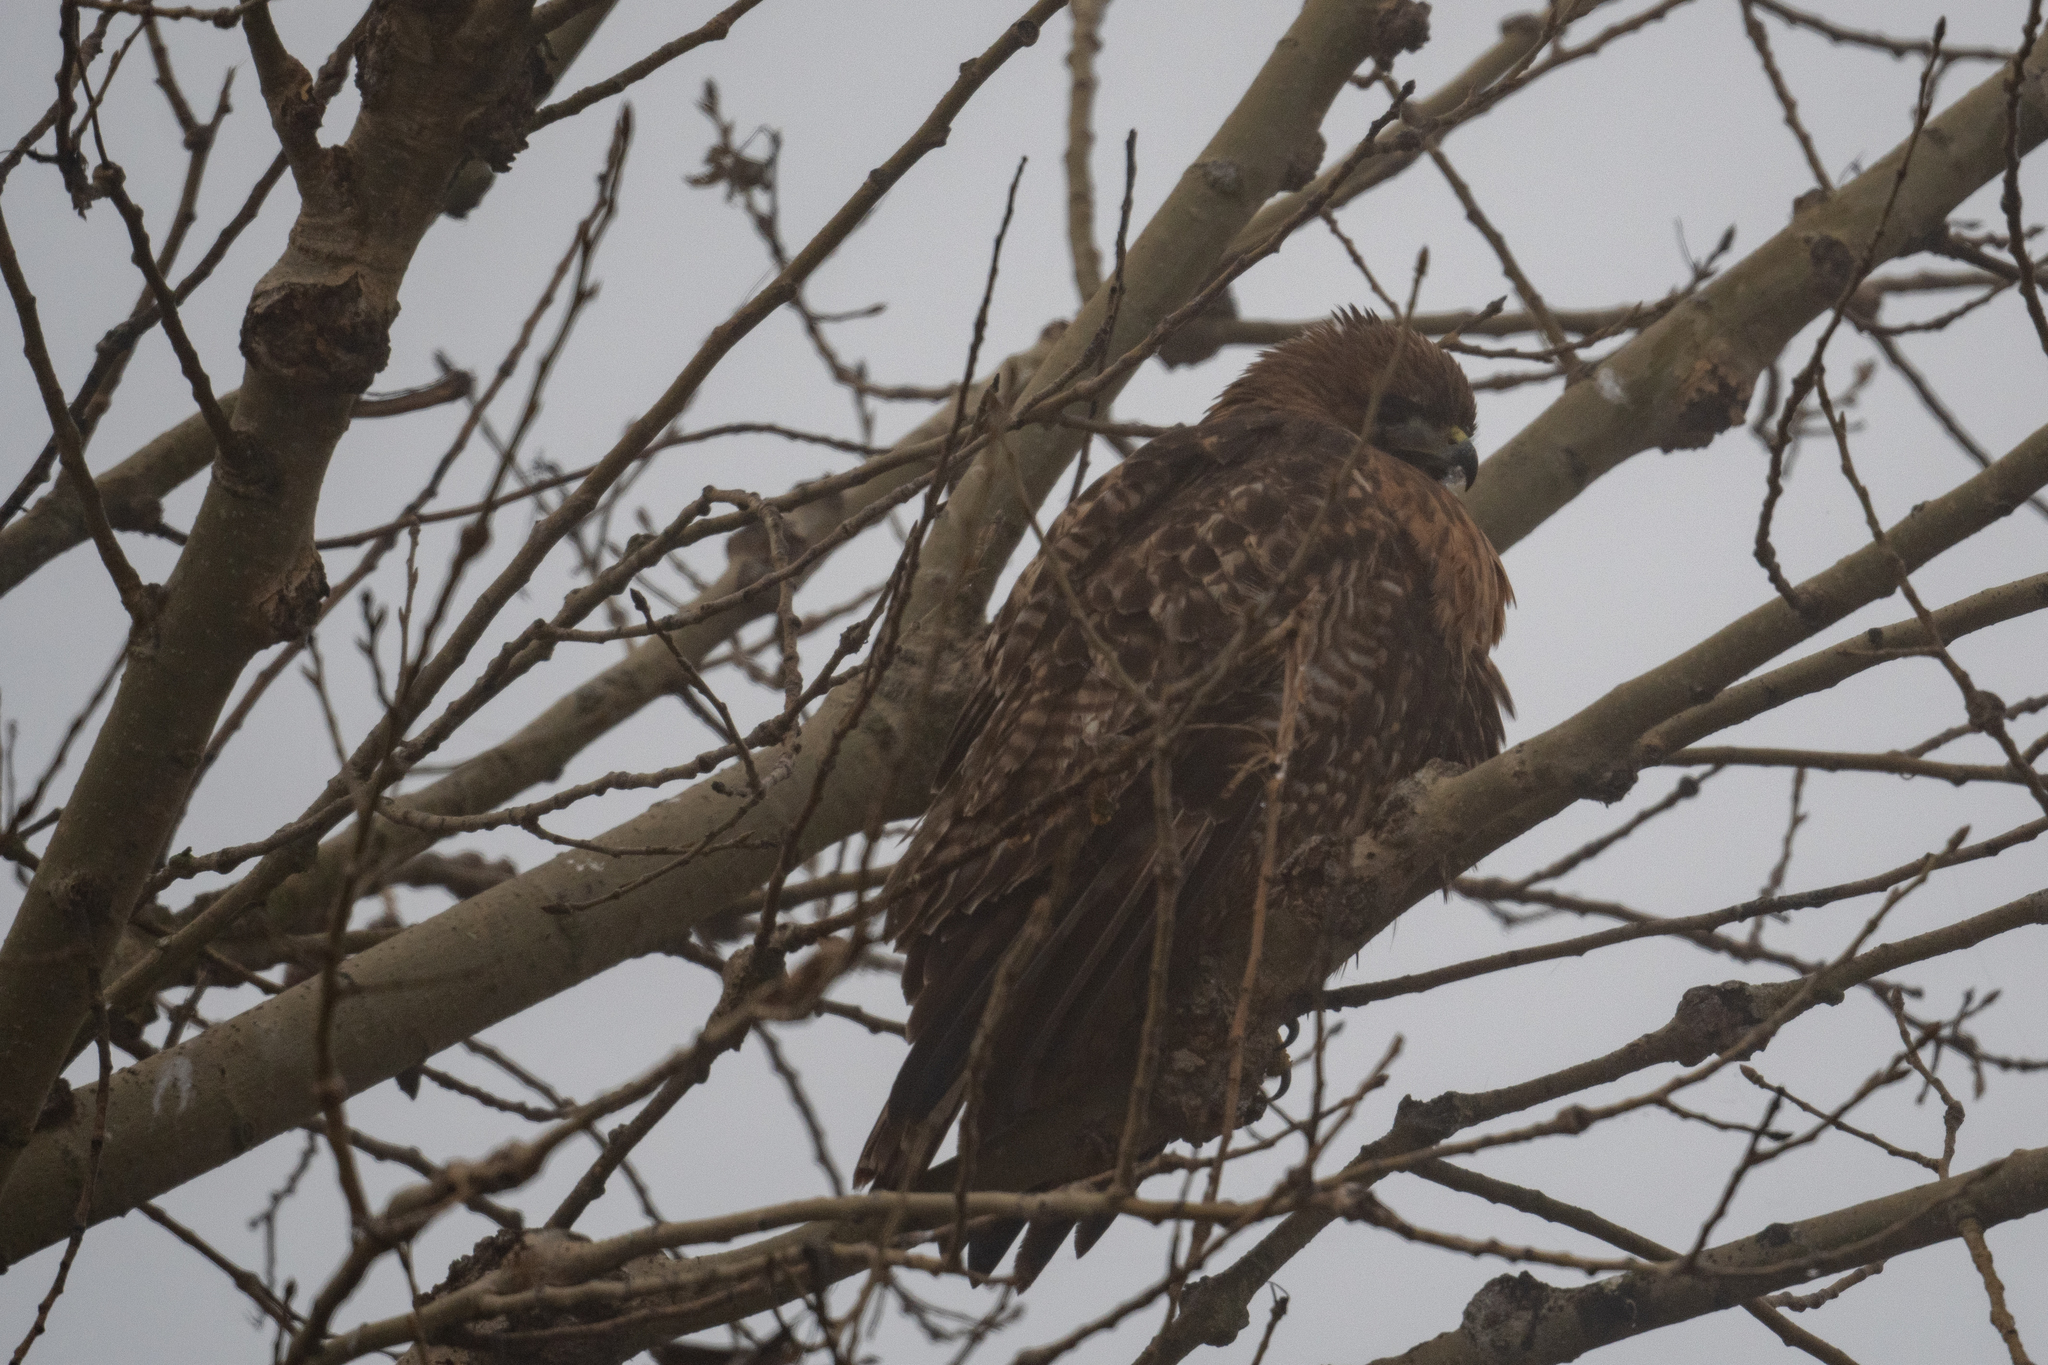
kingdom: Animalia
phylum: Chordata
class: Aves
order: Accipitriformes
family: Accipitridae
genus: Buteo
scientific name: Buteo jamaicensis
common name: Red-tailed hawk
